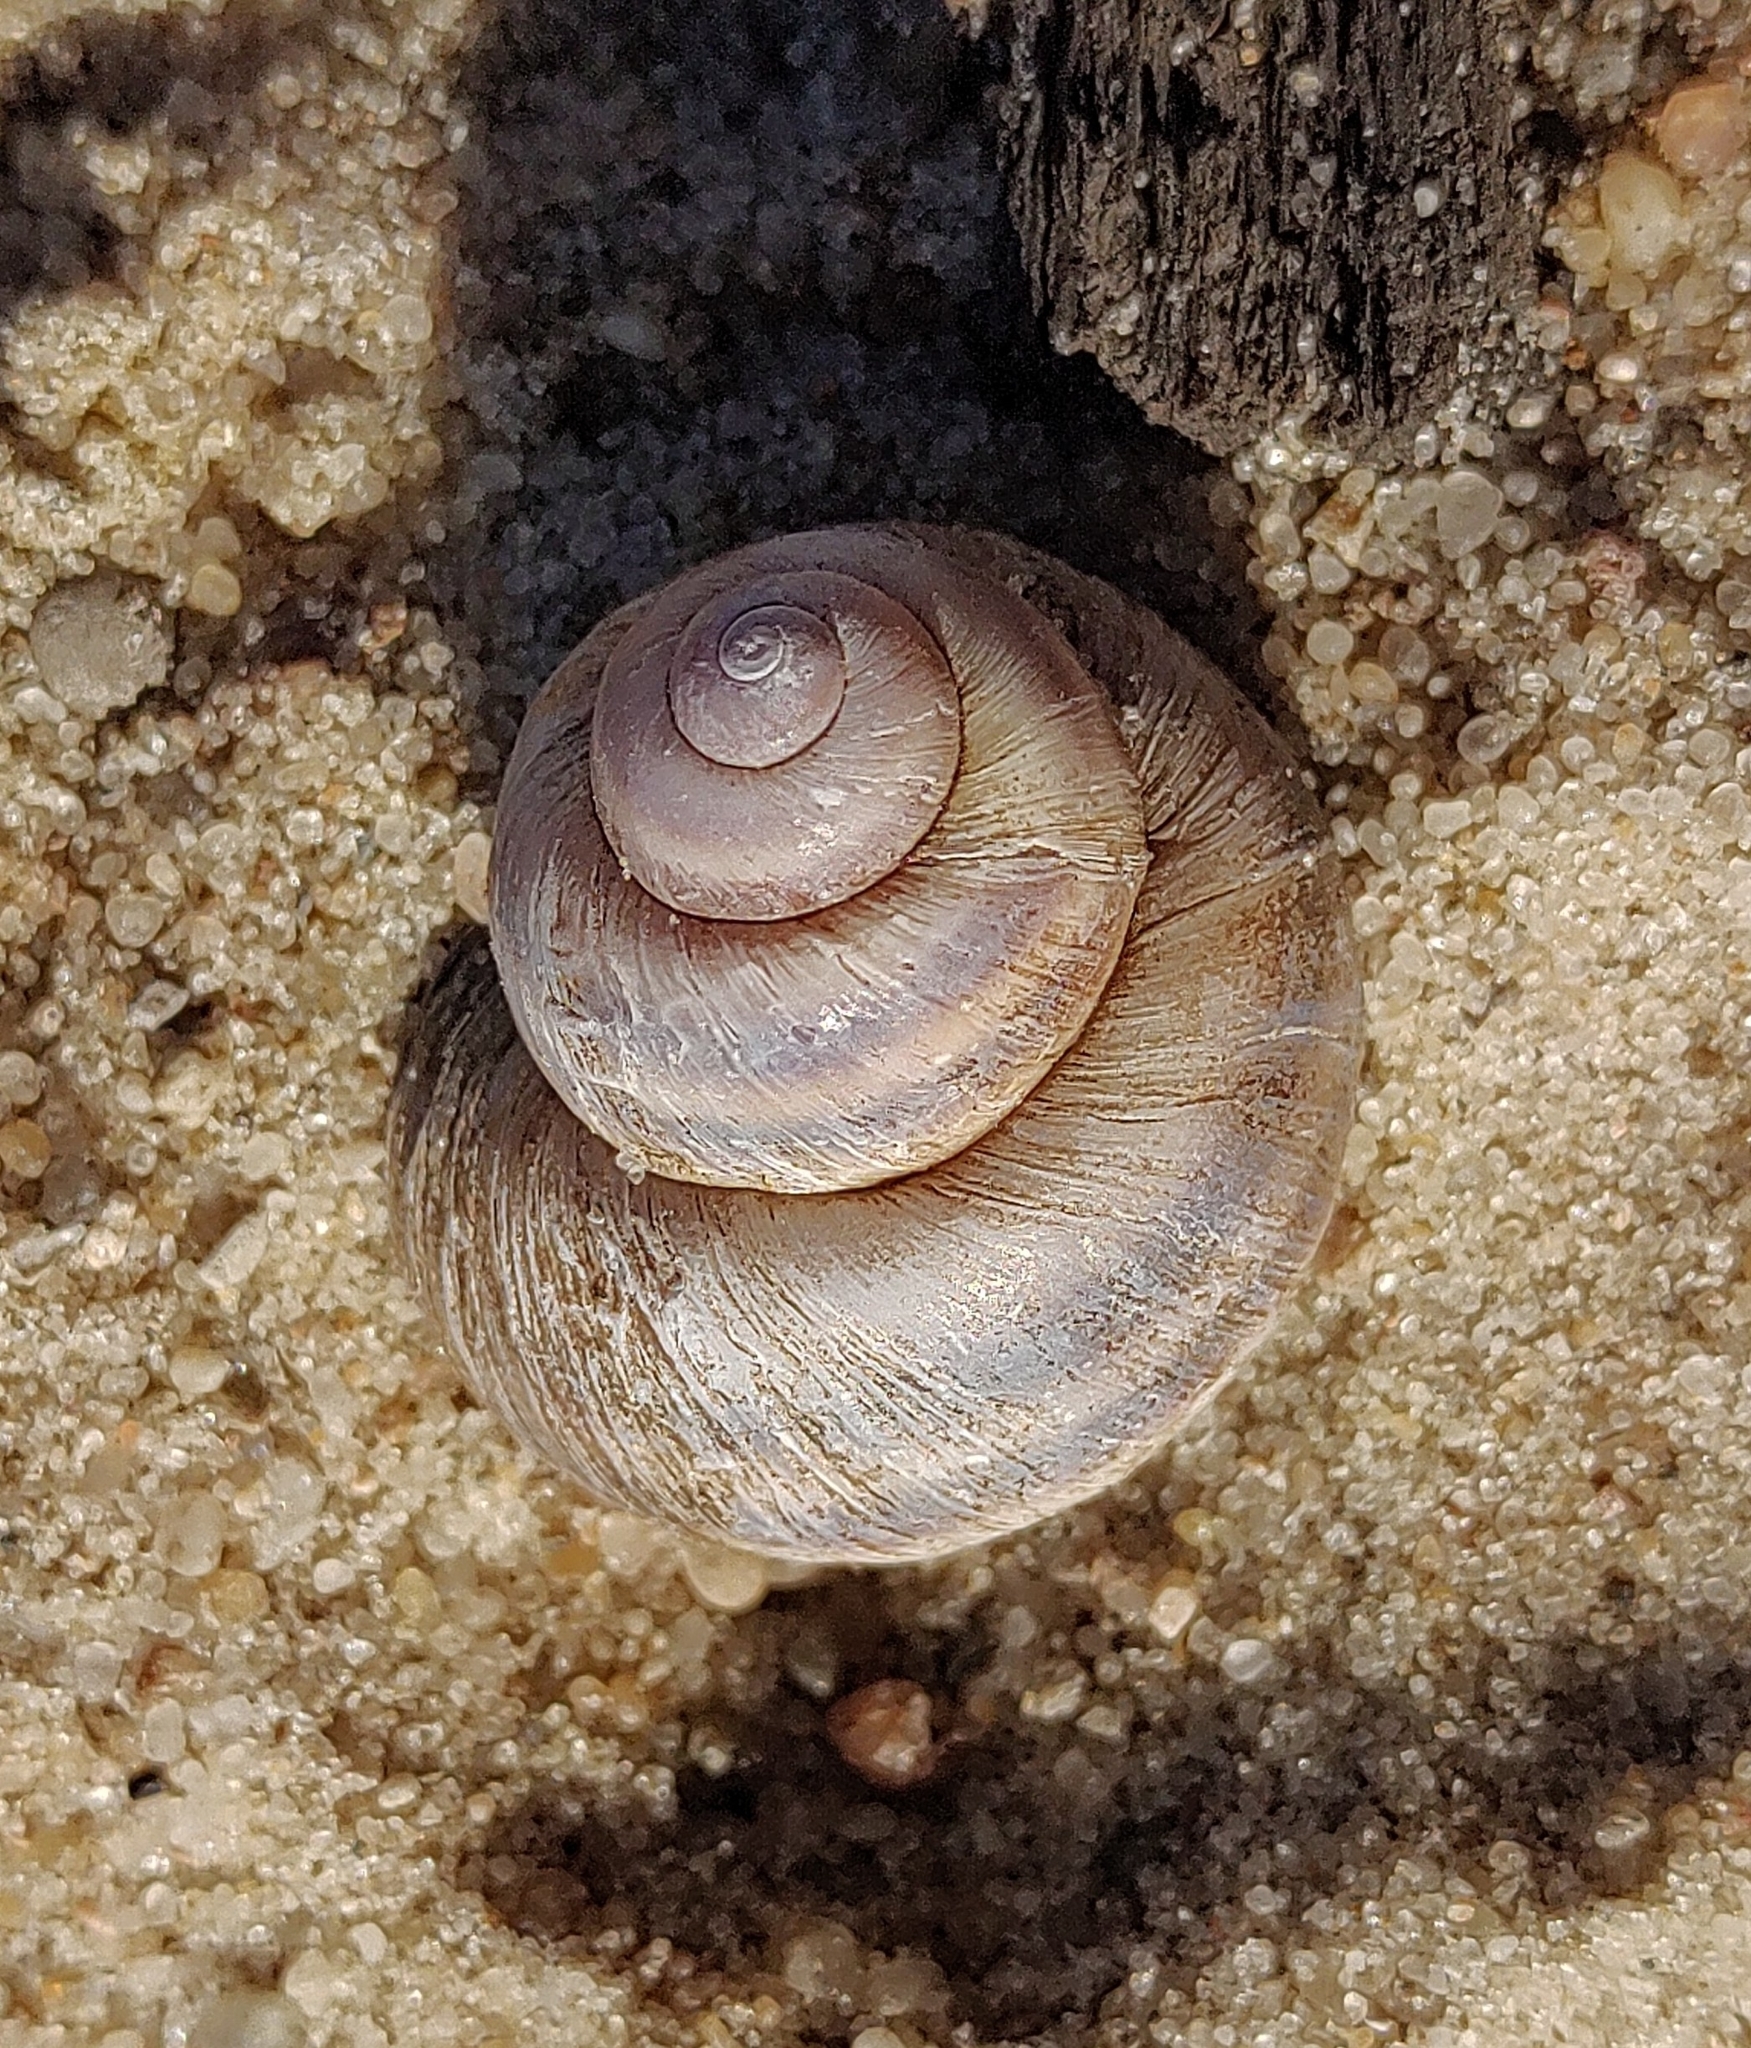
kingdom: Animalia
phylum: Mollusca
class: Gastropoda
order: Architaenioglossa
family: Viviparidae
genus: Viviparus
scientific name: Viviparus viviparus
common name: River snail
